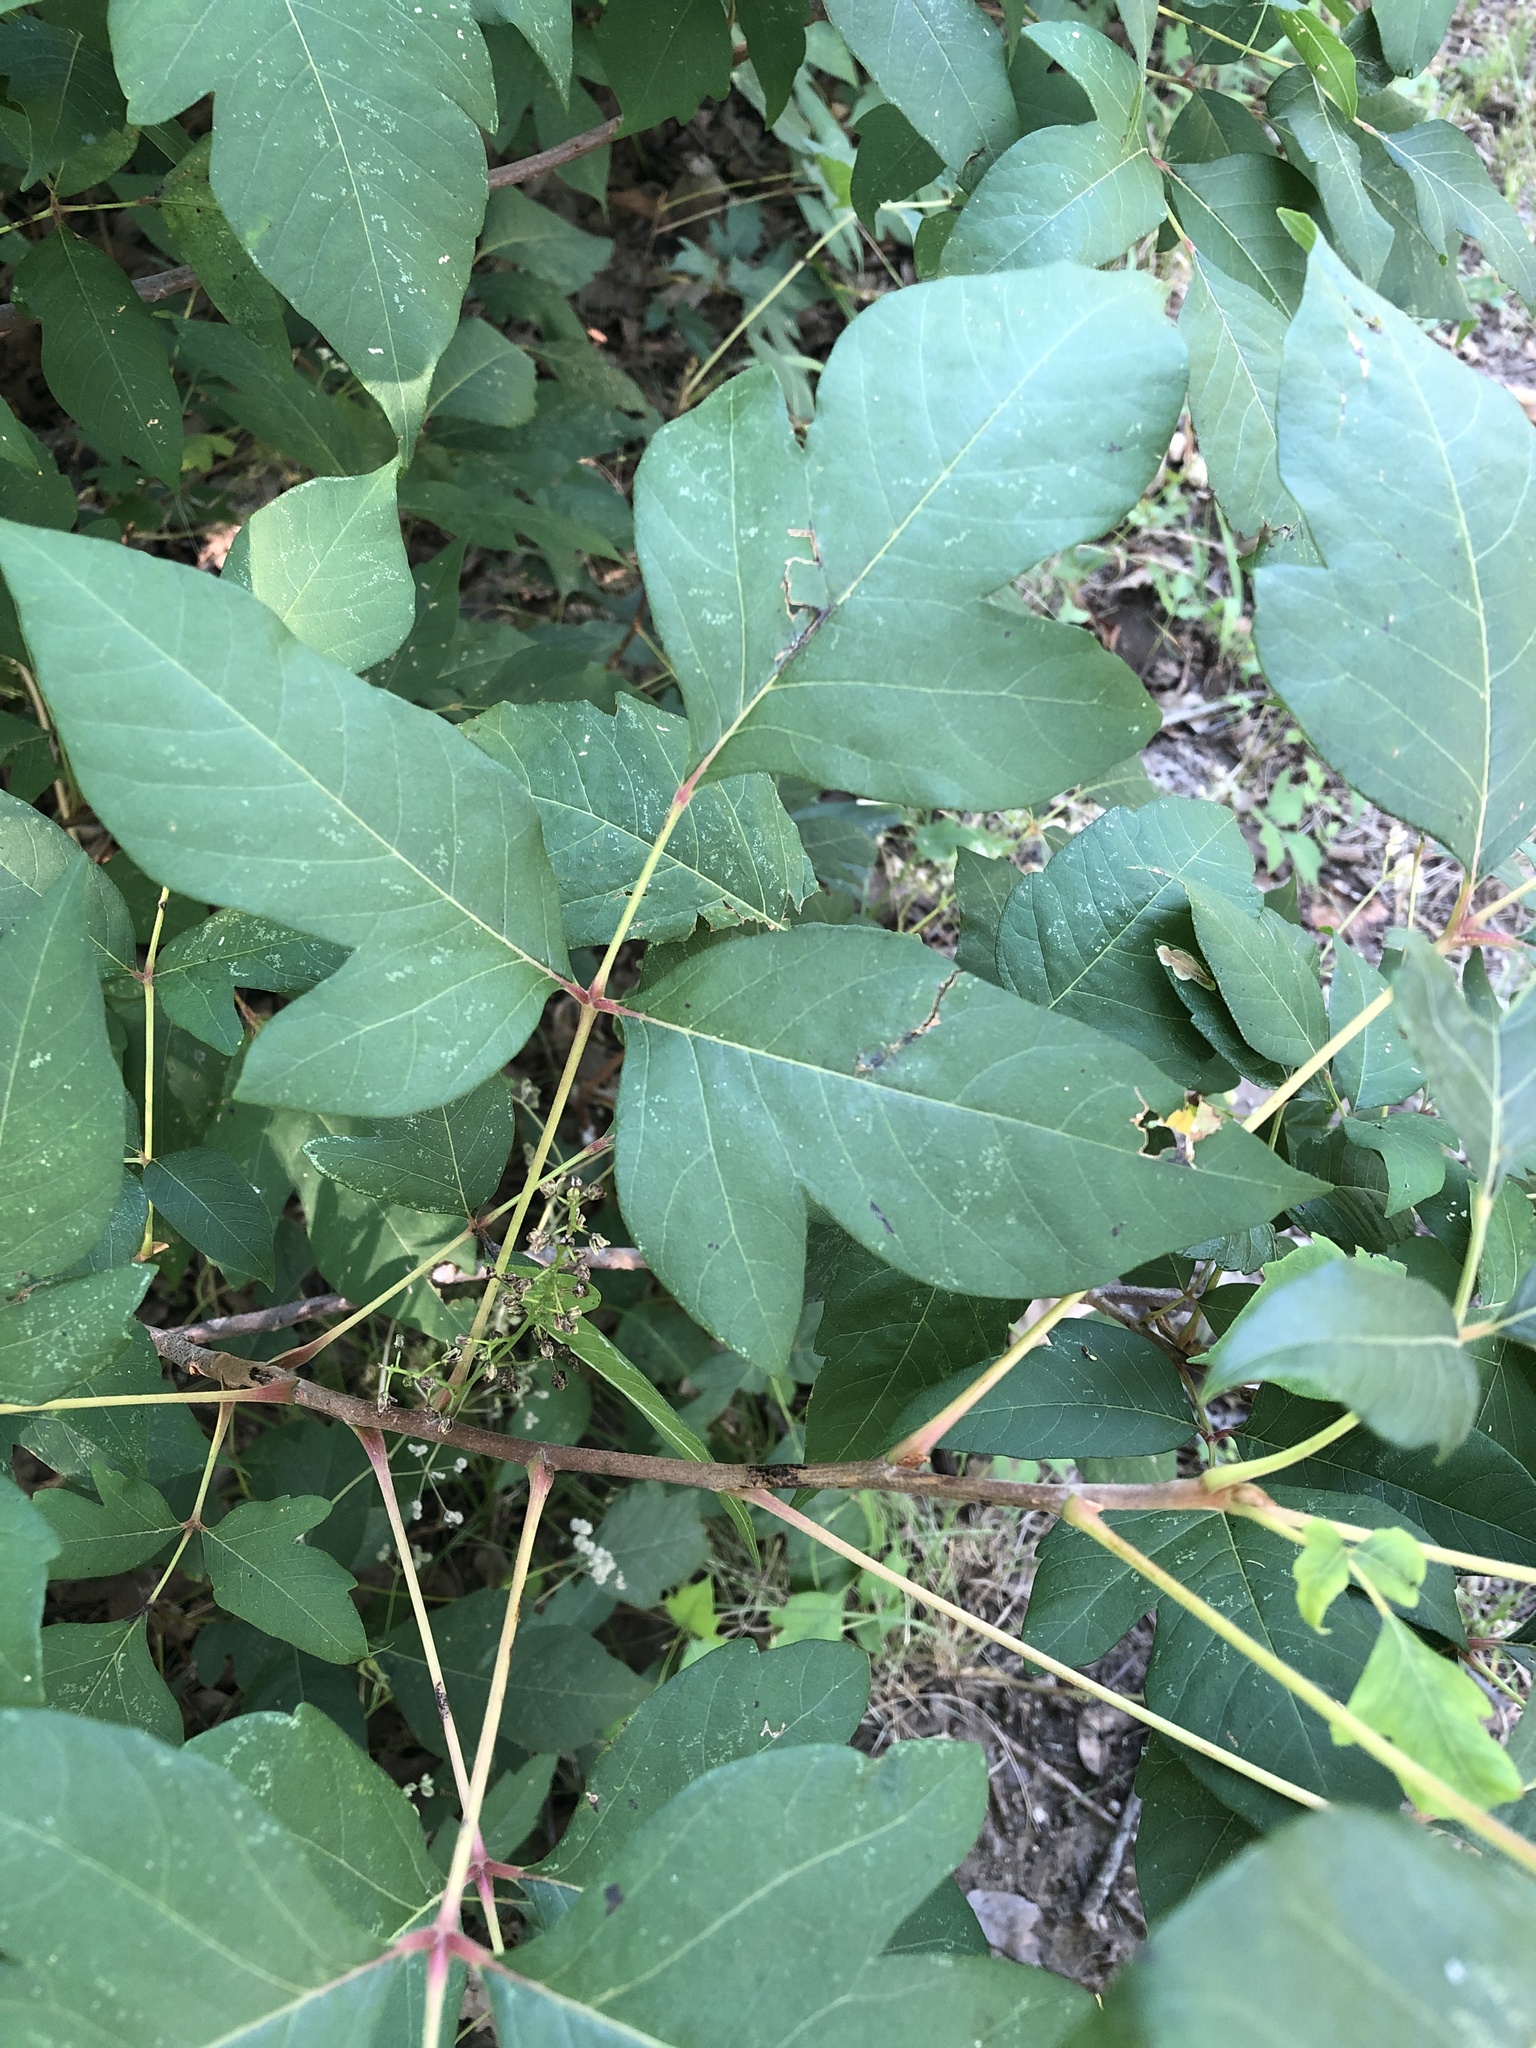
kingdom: Plantae
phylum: Tracheophyta
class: Magnoliopsida
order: Sapindales
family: Anacardiaceae
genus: Toxicodendron
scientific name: Toxicodendron radicans
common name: Poison ivy
